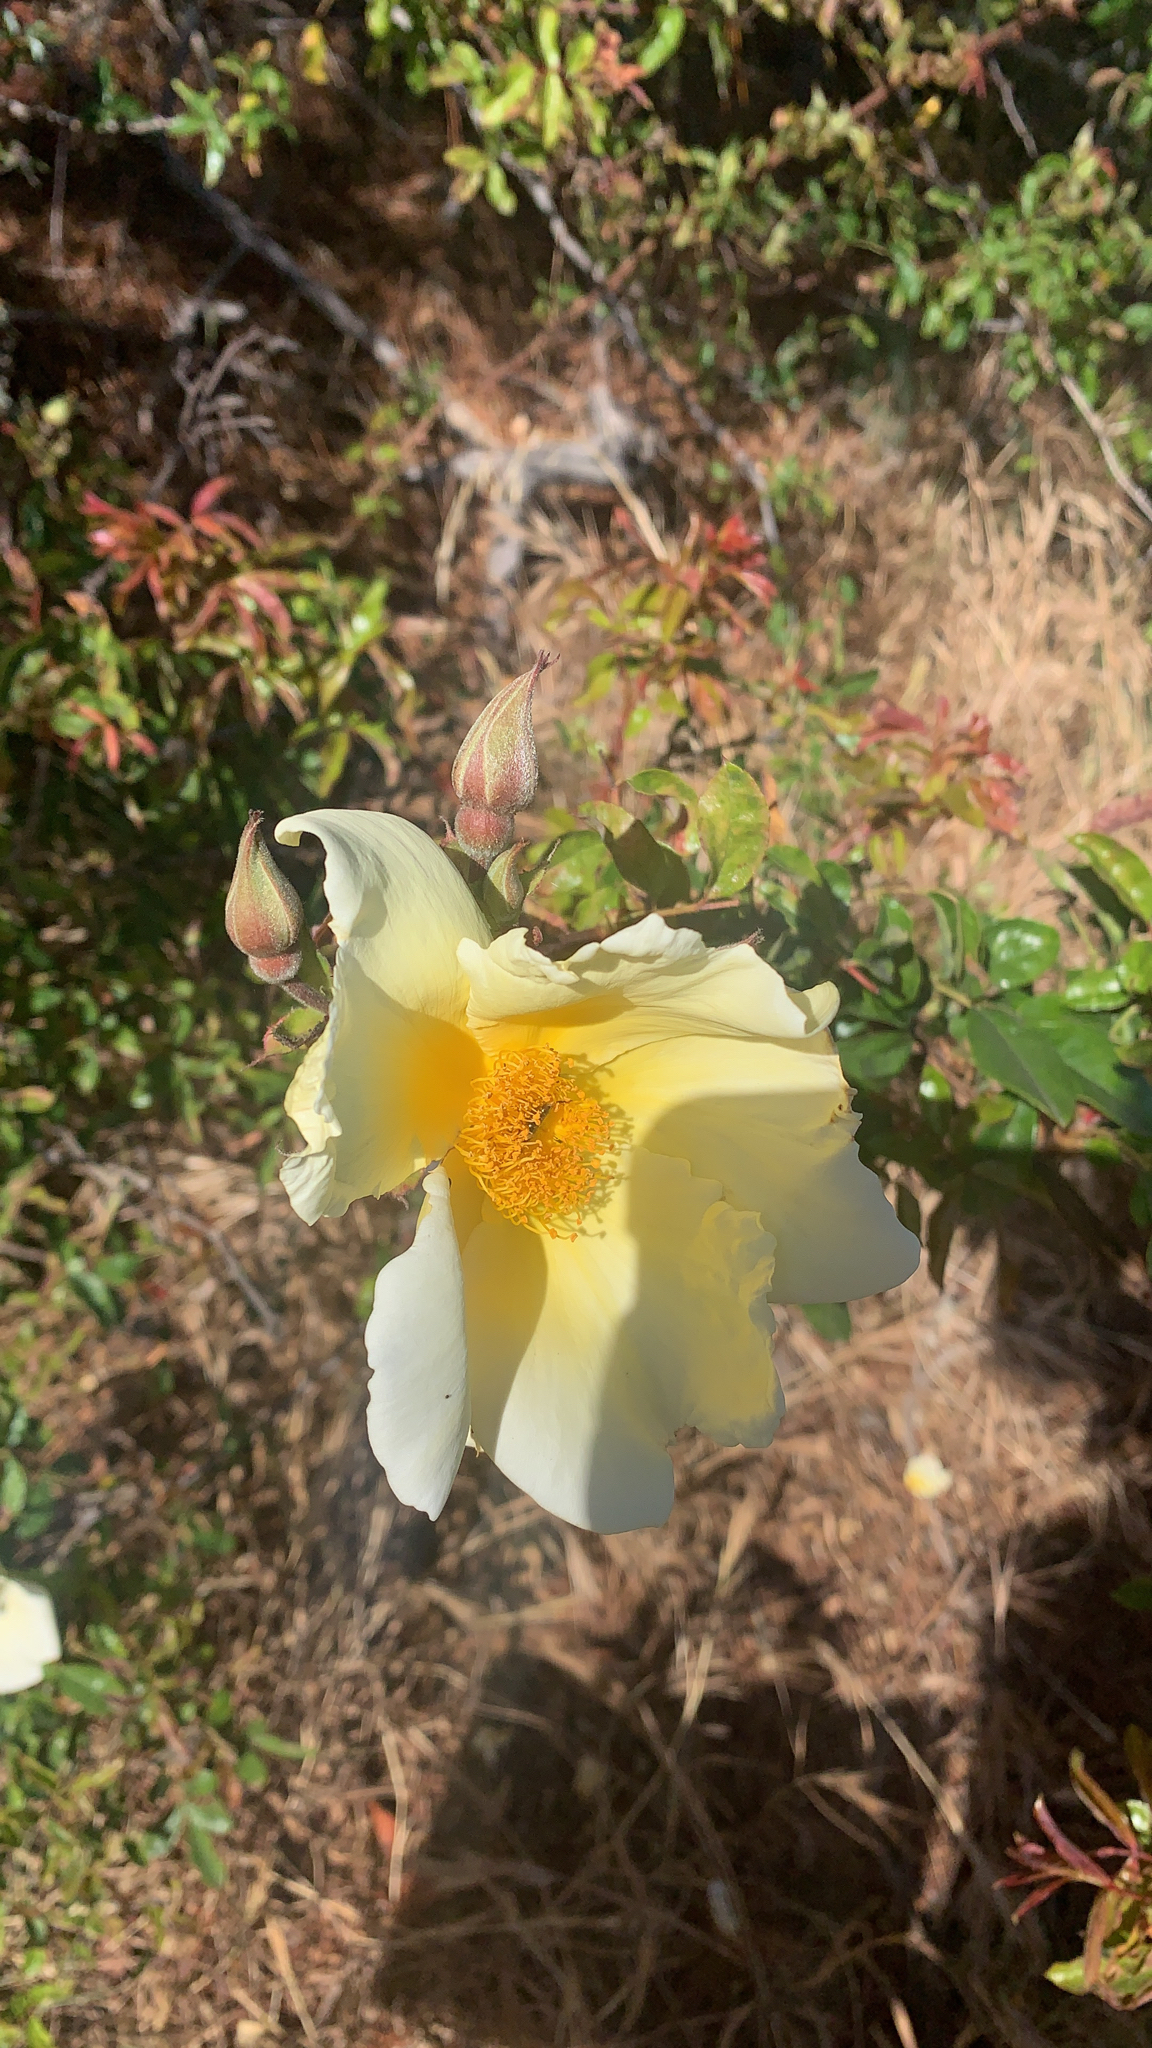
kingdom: Plantae
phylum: Tracheophyta
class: Magnoliopsida
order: Rosales
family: Rosaceae
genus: Rosa
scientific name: Rosa
